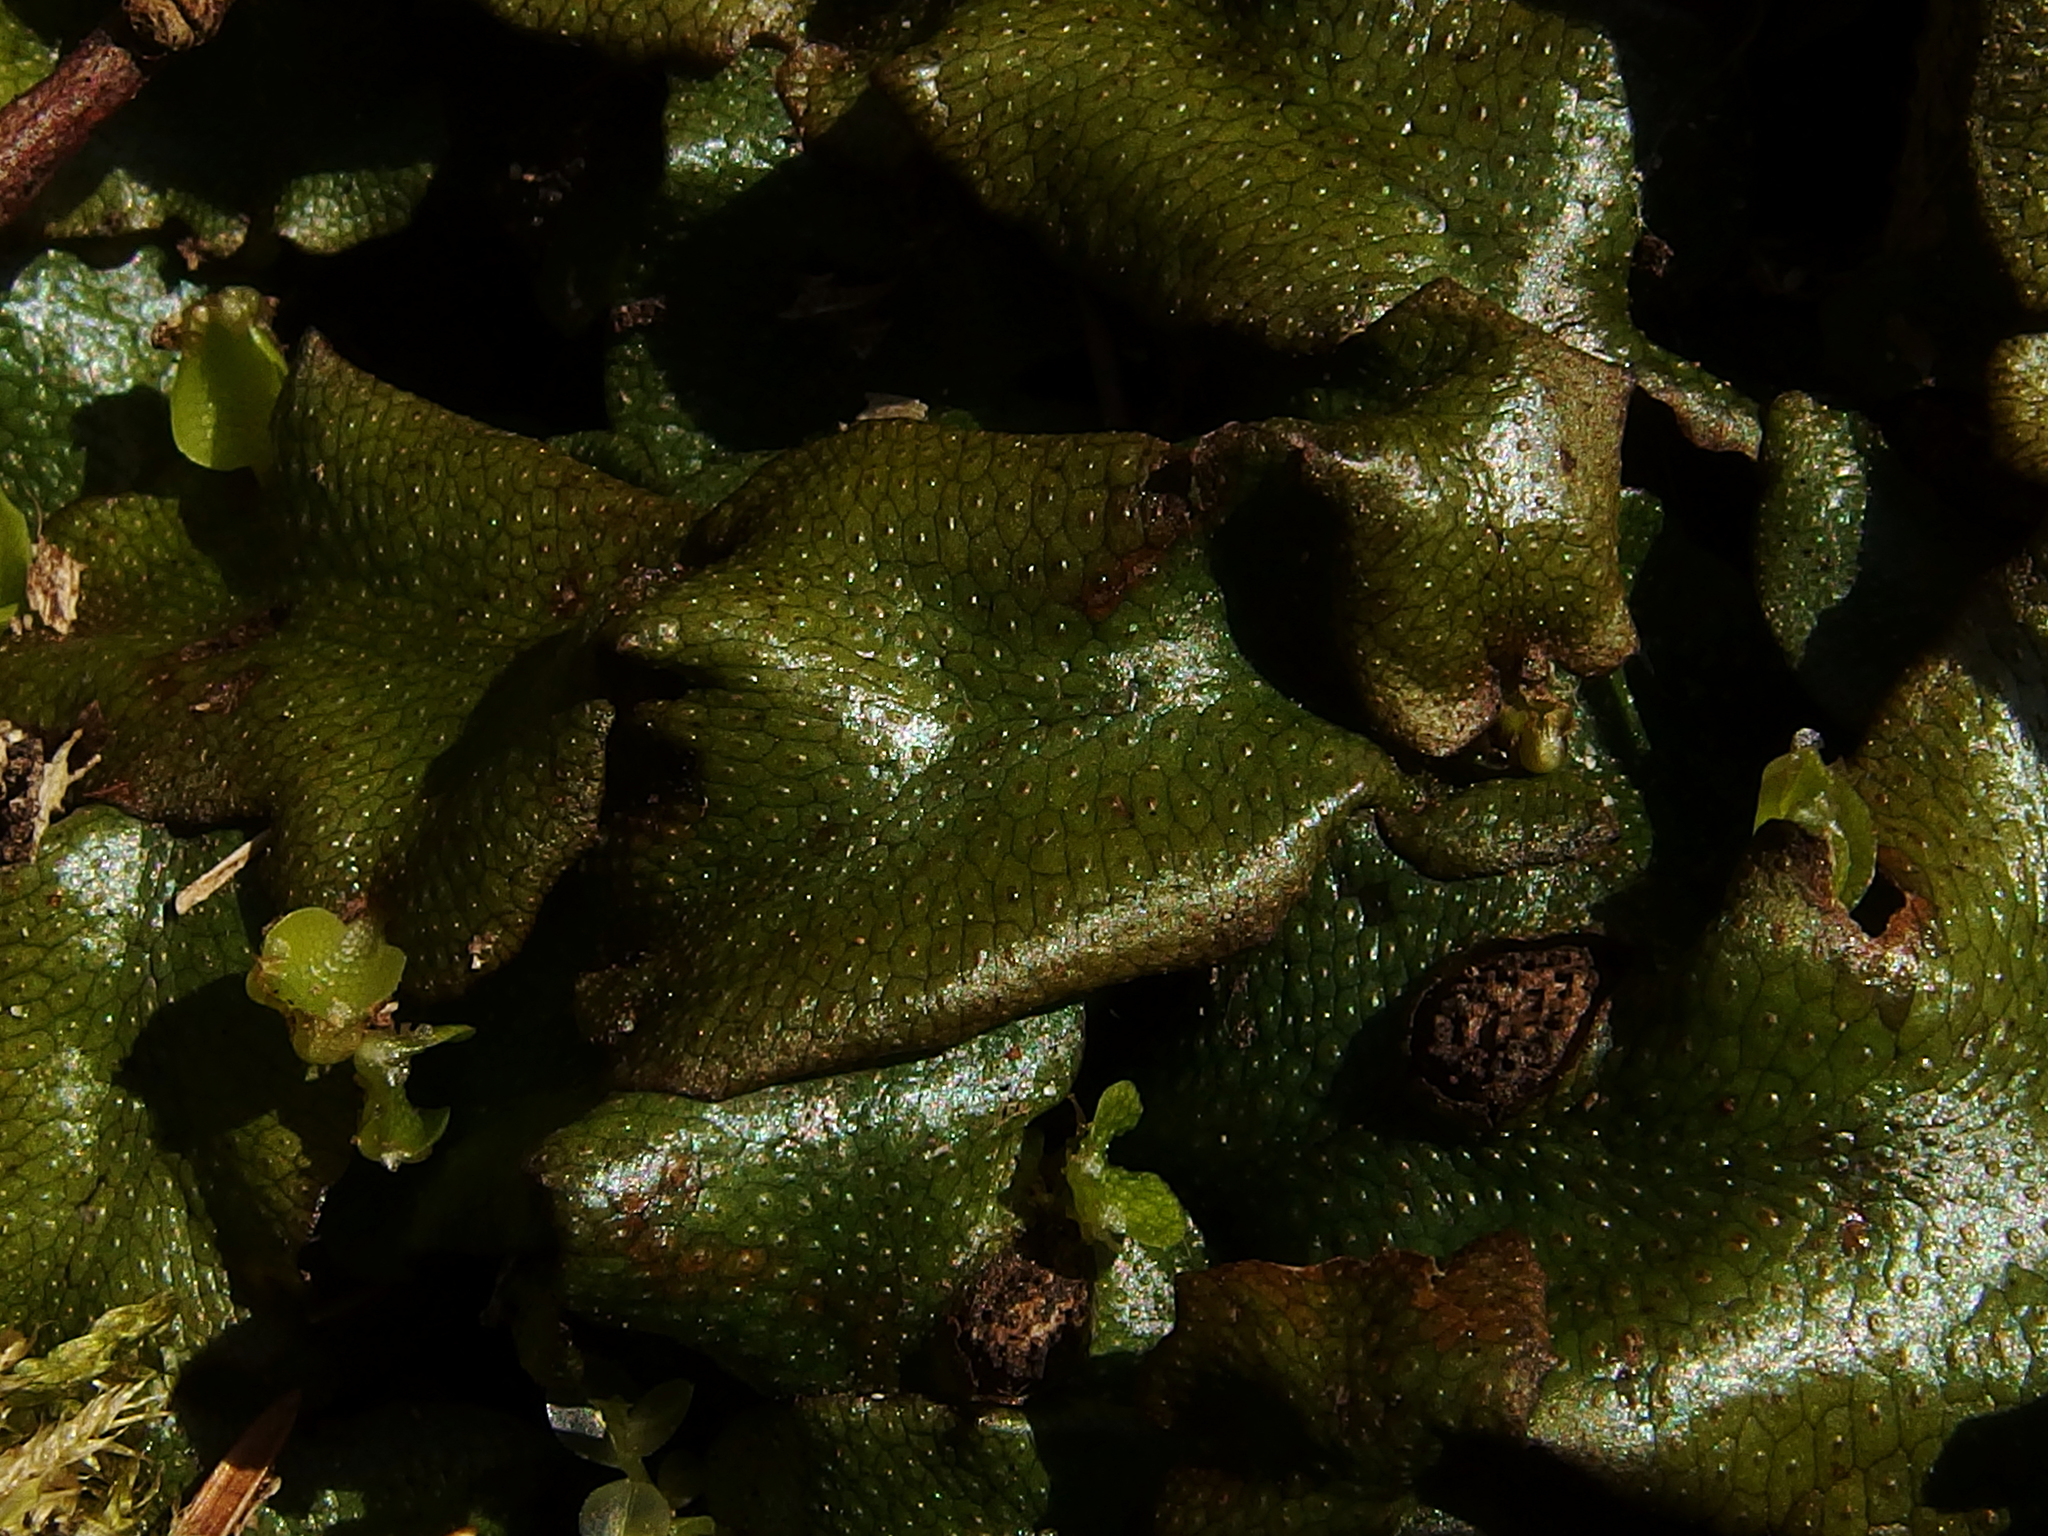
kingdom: Plantae
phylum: Marchantiophyta
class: Marchantiopsida
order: Marchantiales
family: Conocephalaceae
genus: Conocephalum
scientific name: Conocephalum conicum
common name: Great scented liverwort
